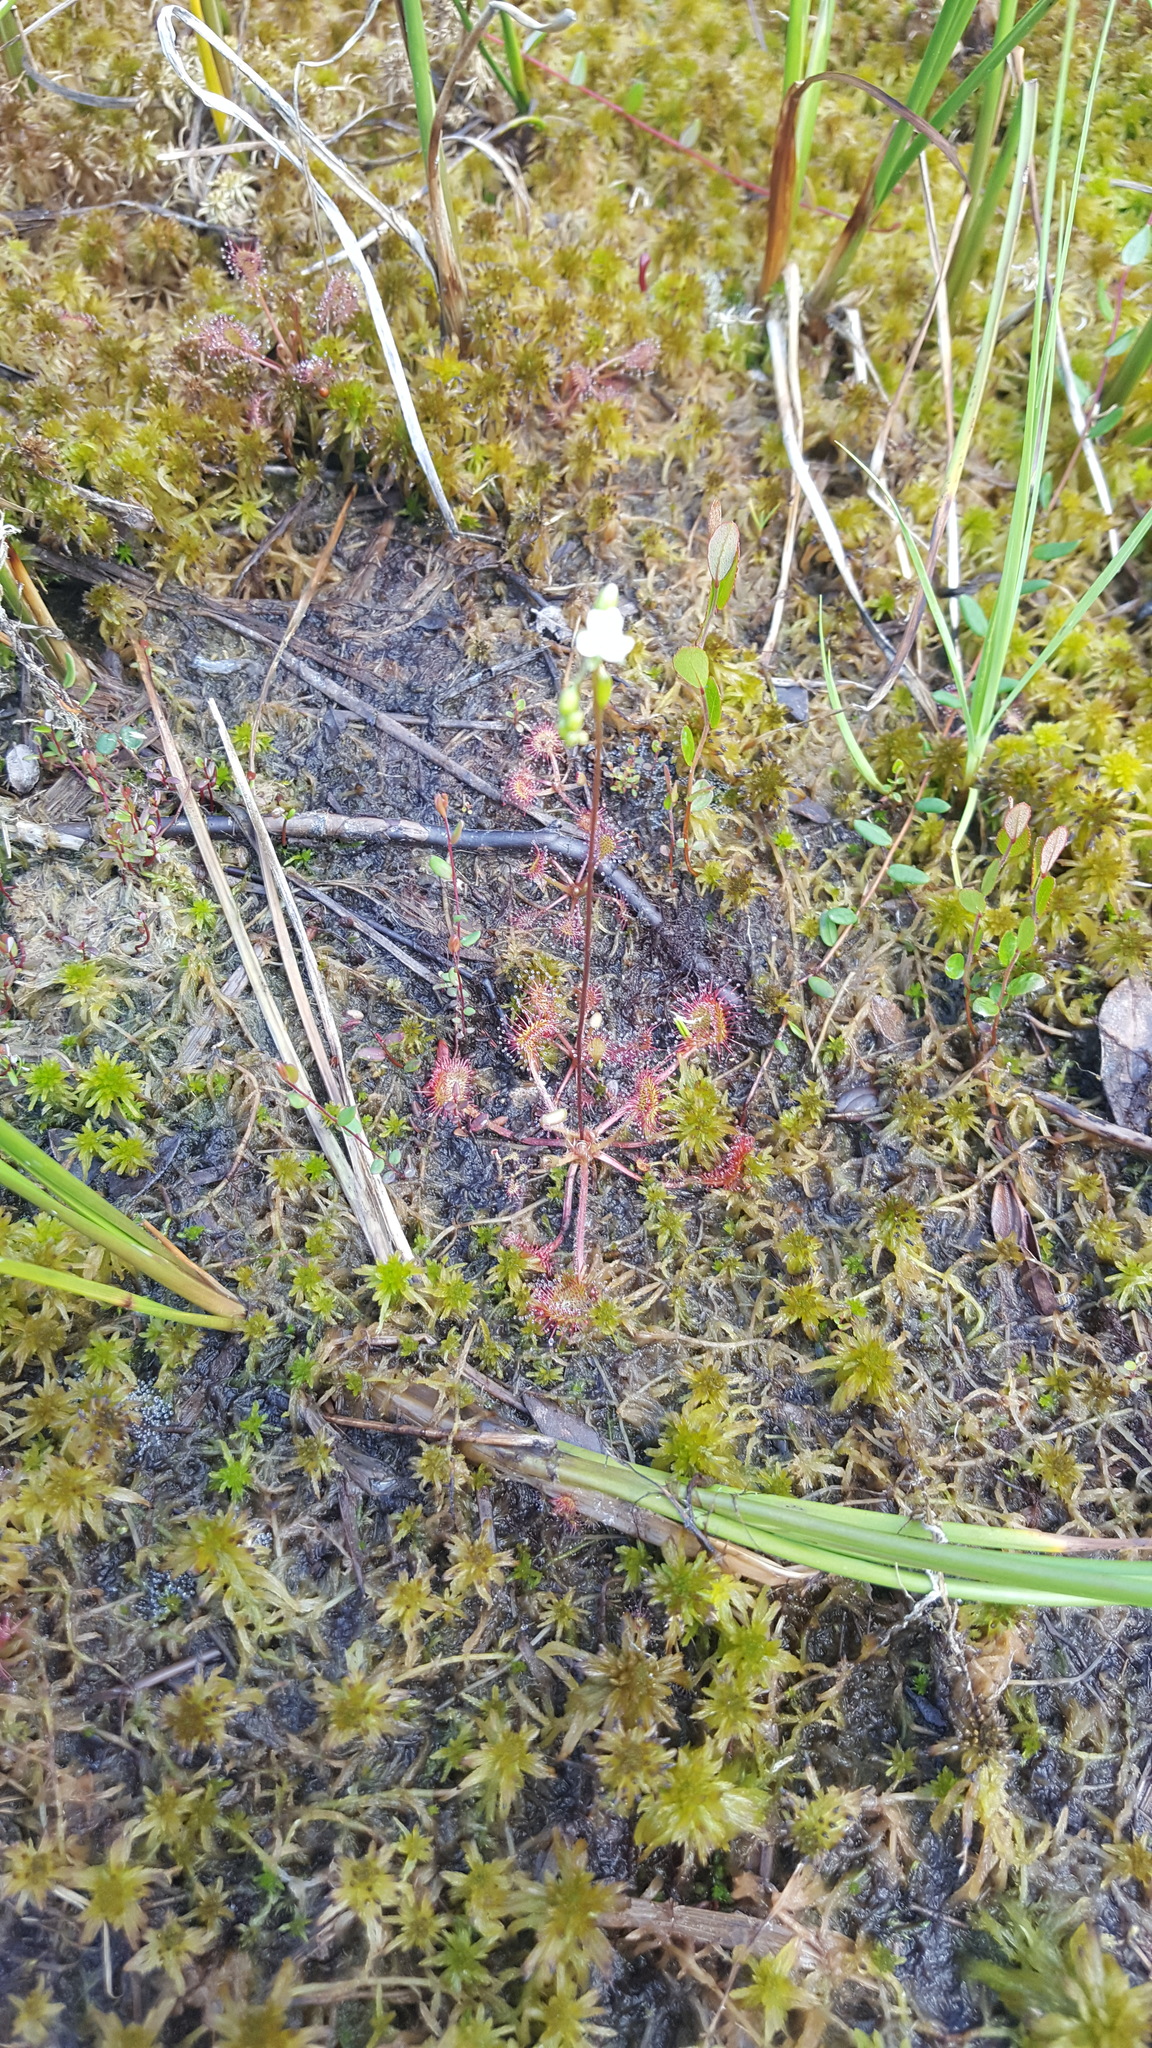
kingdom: Plantae
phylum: Tracheophyta
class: Magnoliopsida
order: Caryophyllales
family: Droseraceae
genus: Drosera
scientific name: Drosera rotundifolia
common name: Round-leaved sundew
